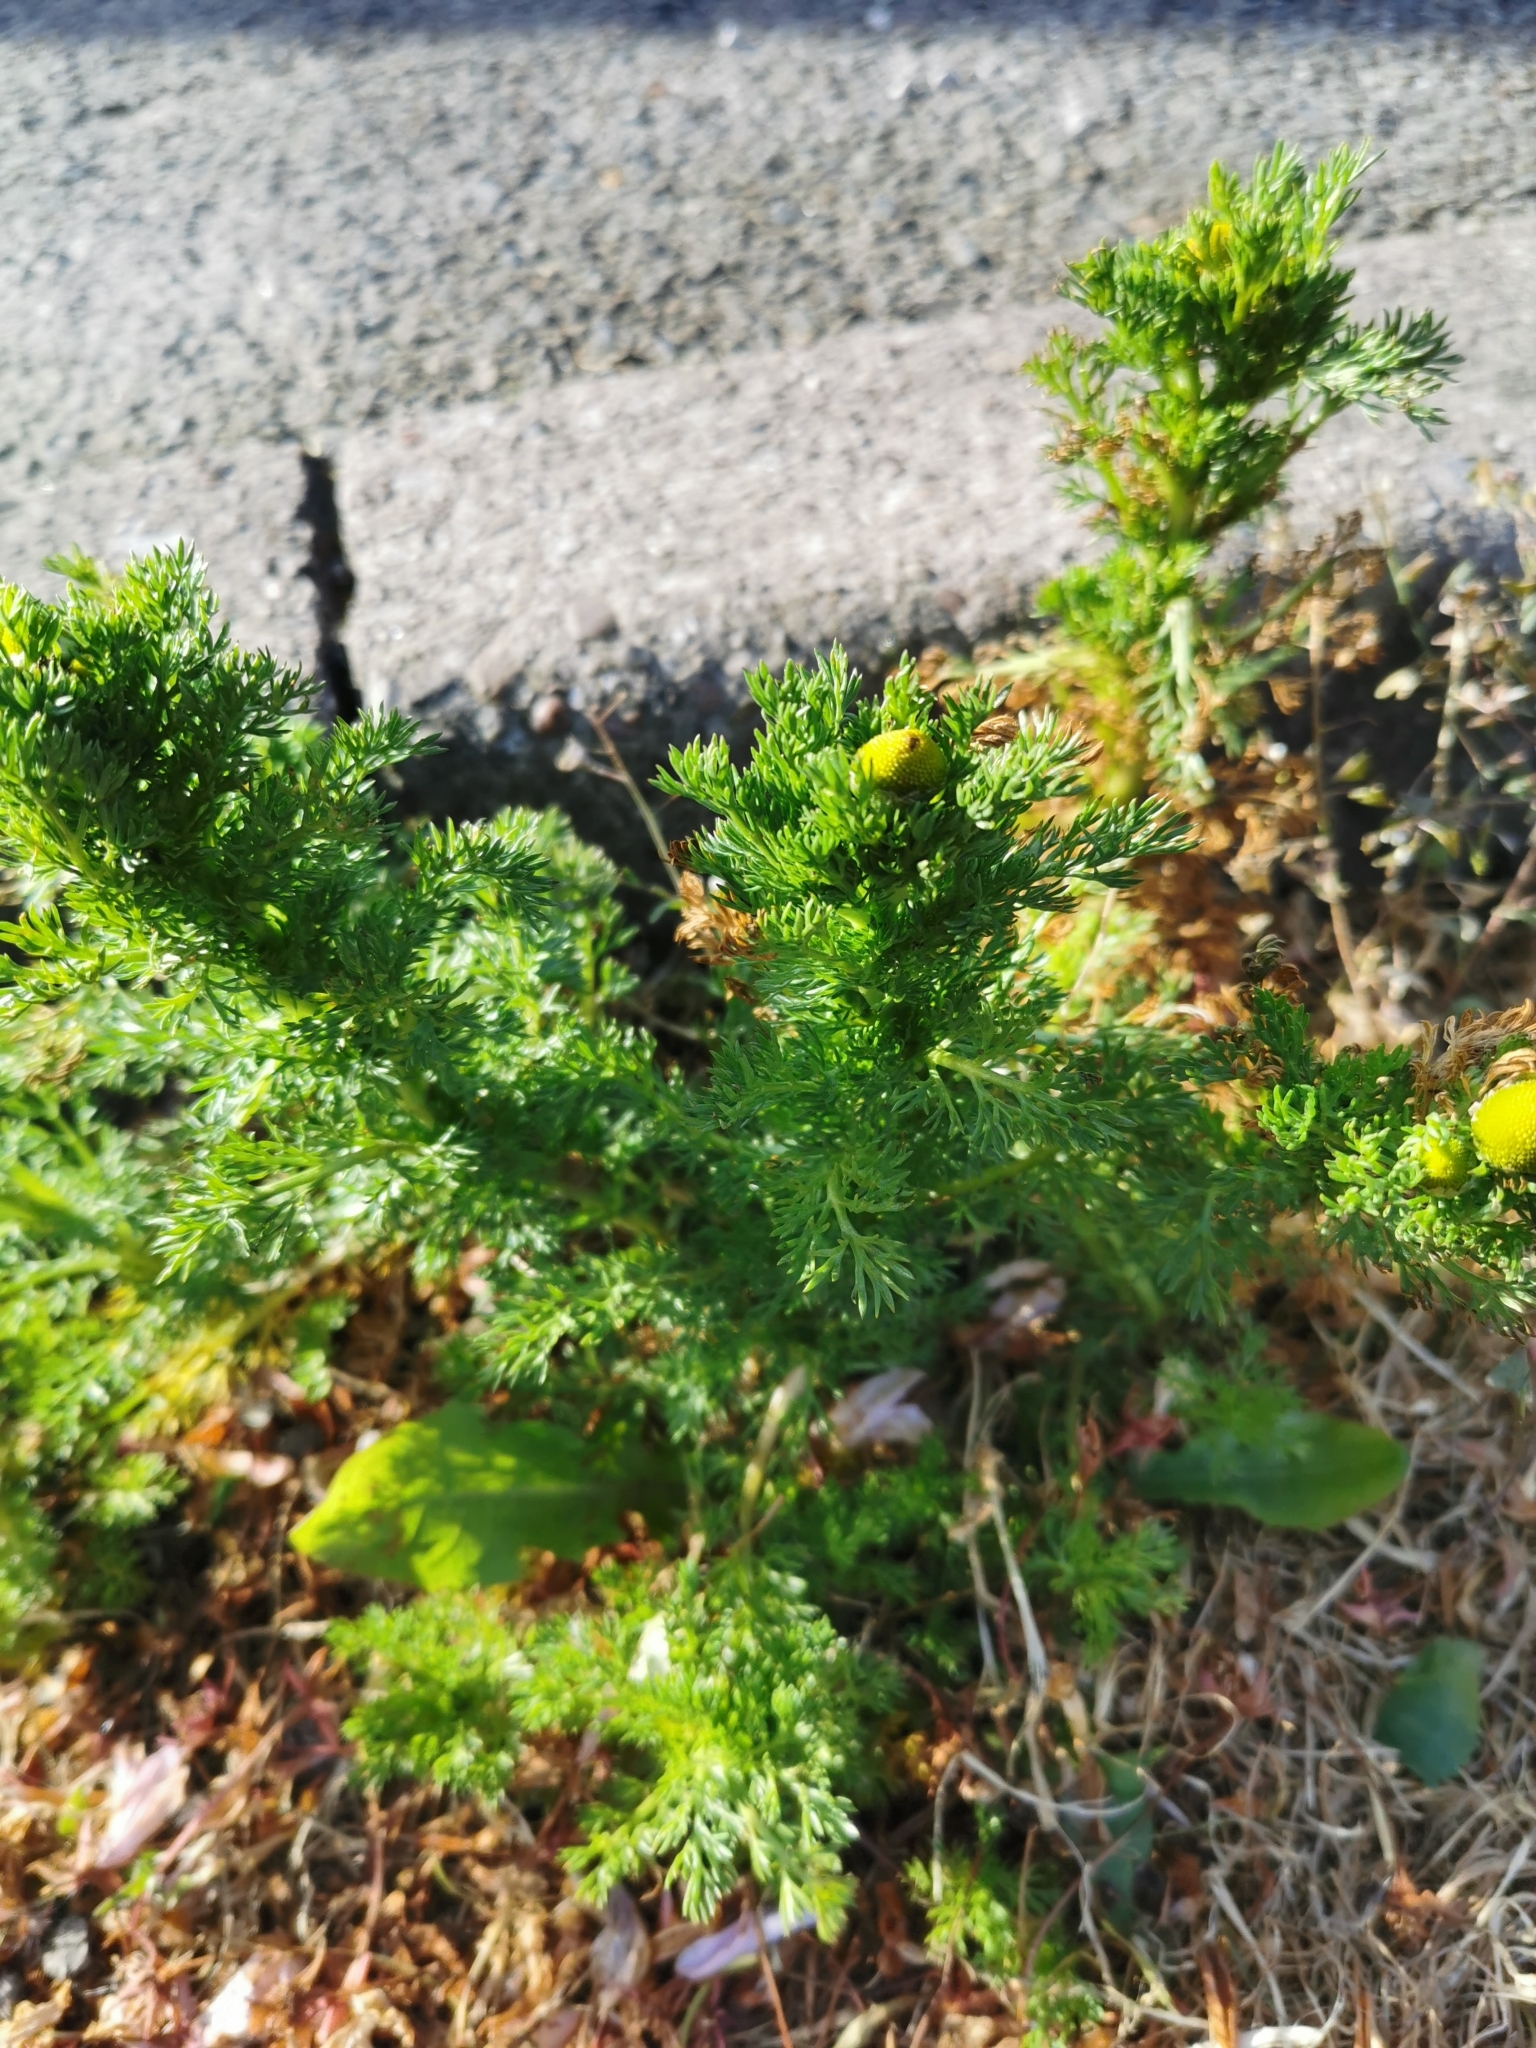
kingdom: Plantae
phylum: Tracheophyta
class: Magnoliopsida
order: Asterales
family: Asteraceae
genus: Matricaria
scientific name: Matricaria discoidea
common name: Disc mayweed
